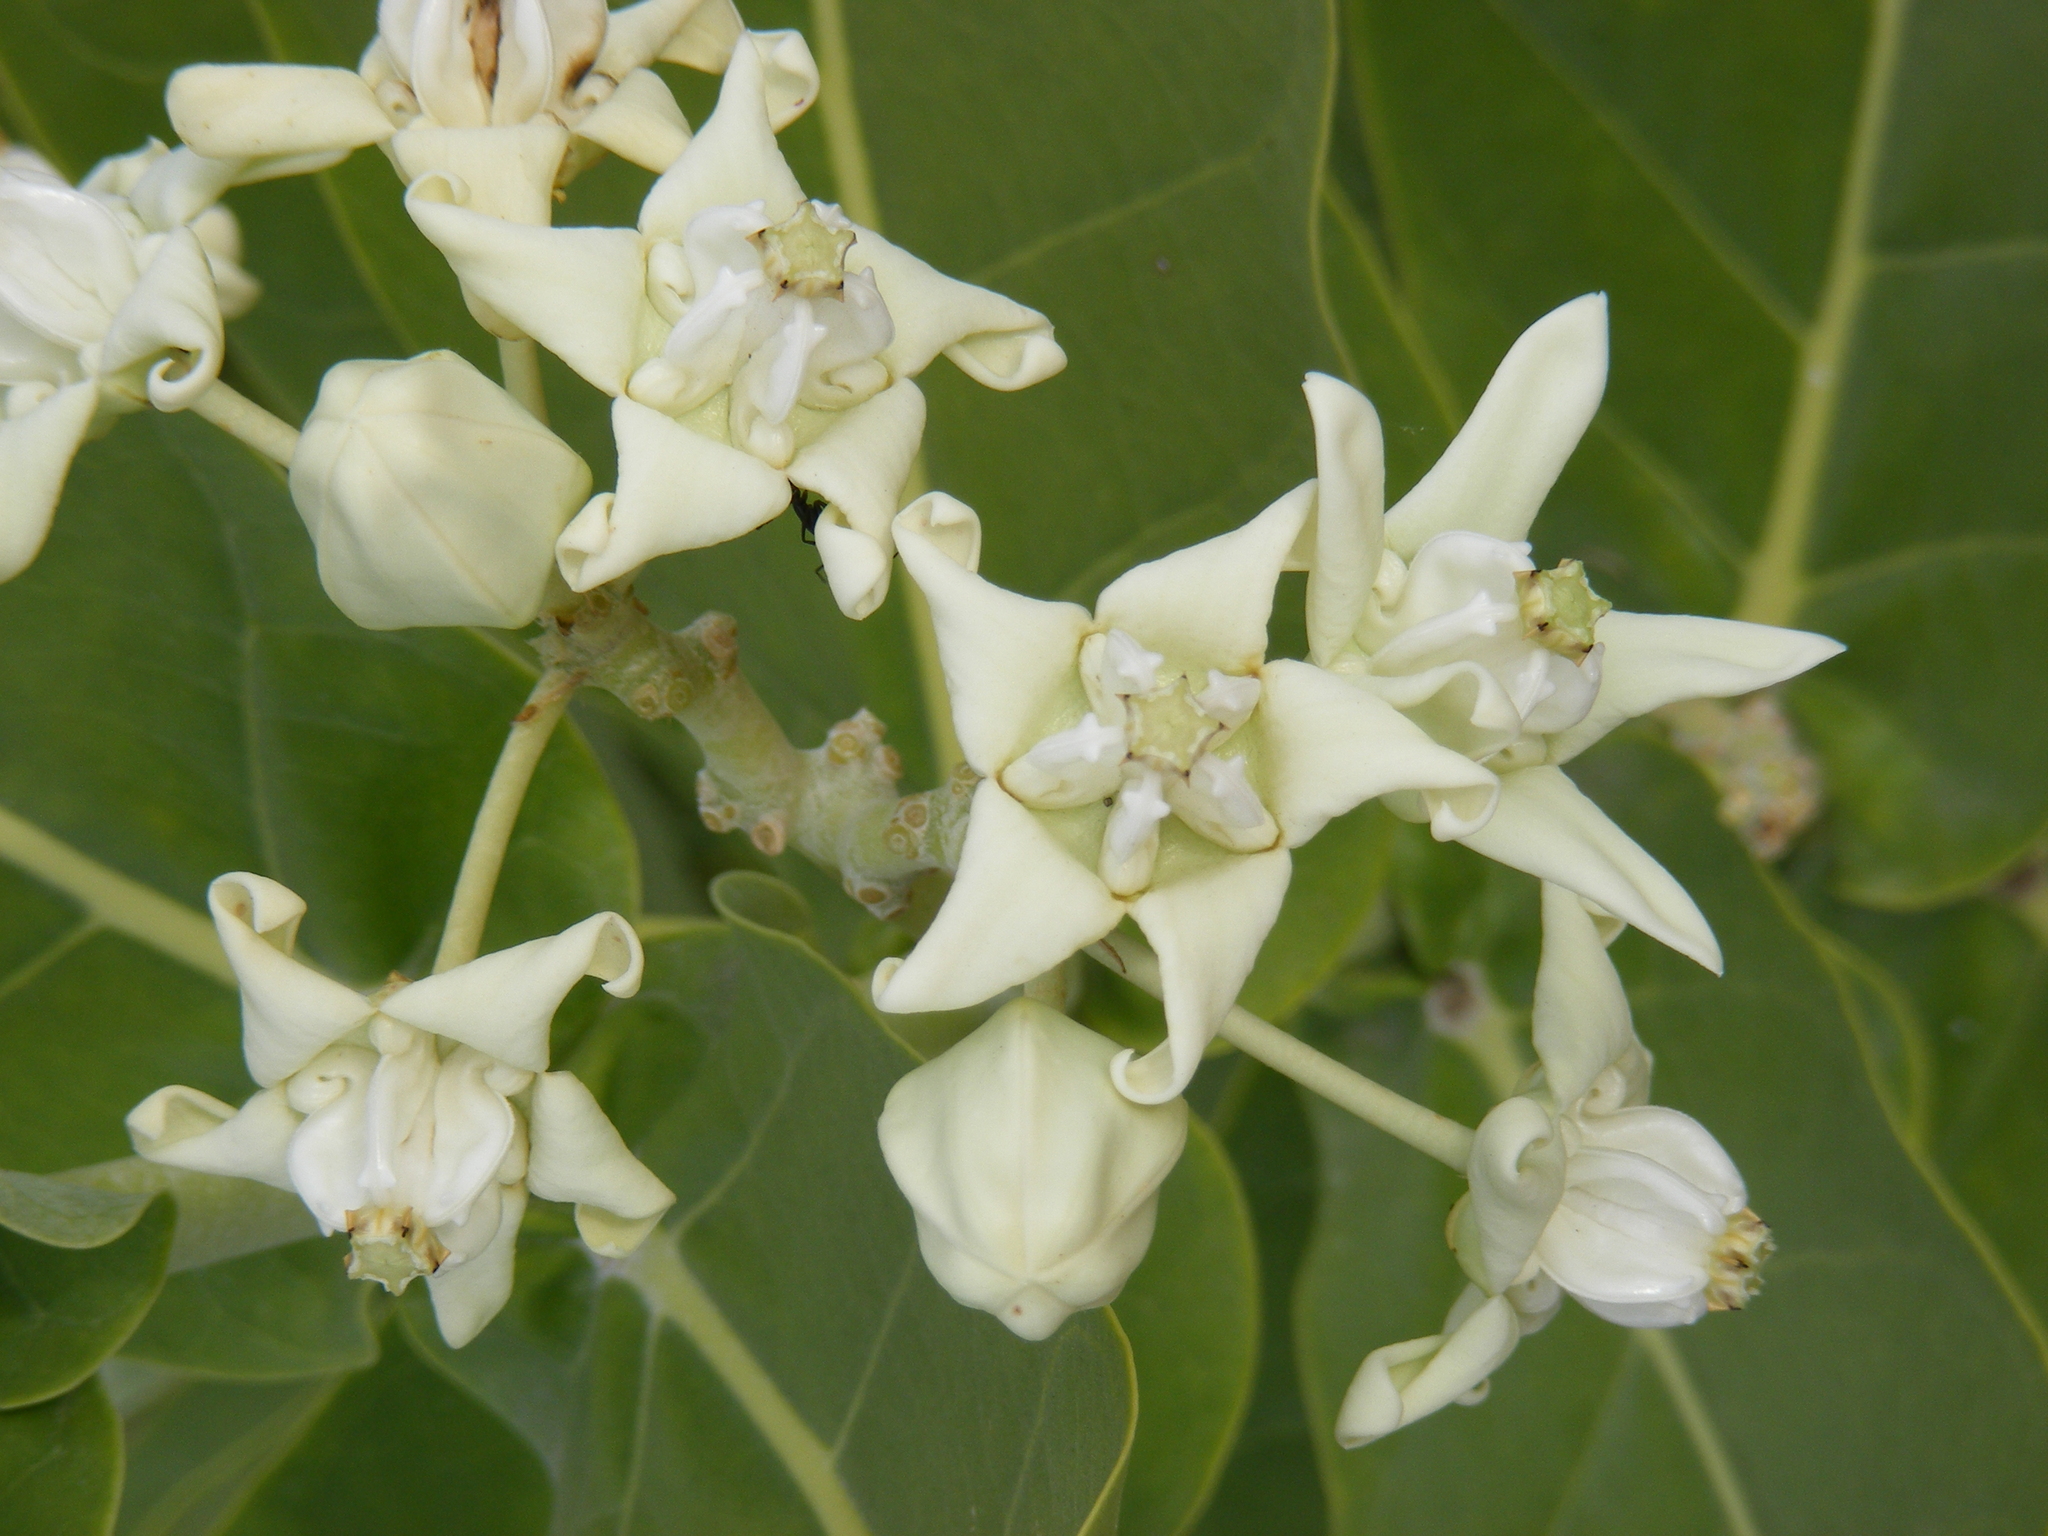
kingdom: Plantae
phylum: Tracheophyta
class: Magnoliopsida
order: Gentianales
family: Apocynaceae
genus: Calotropis
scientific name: Calotropis gigantea
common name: Crown flower
